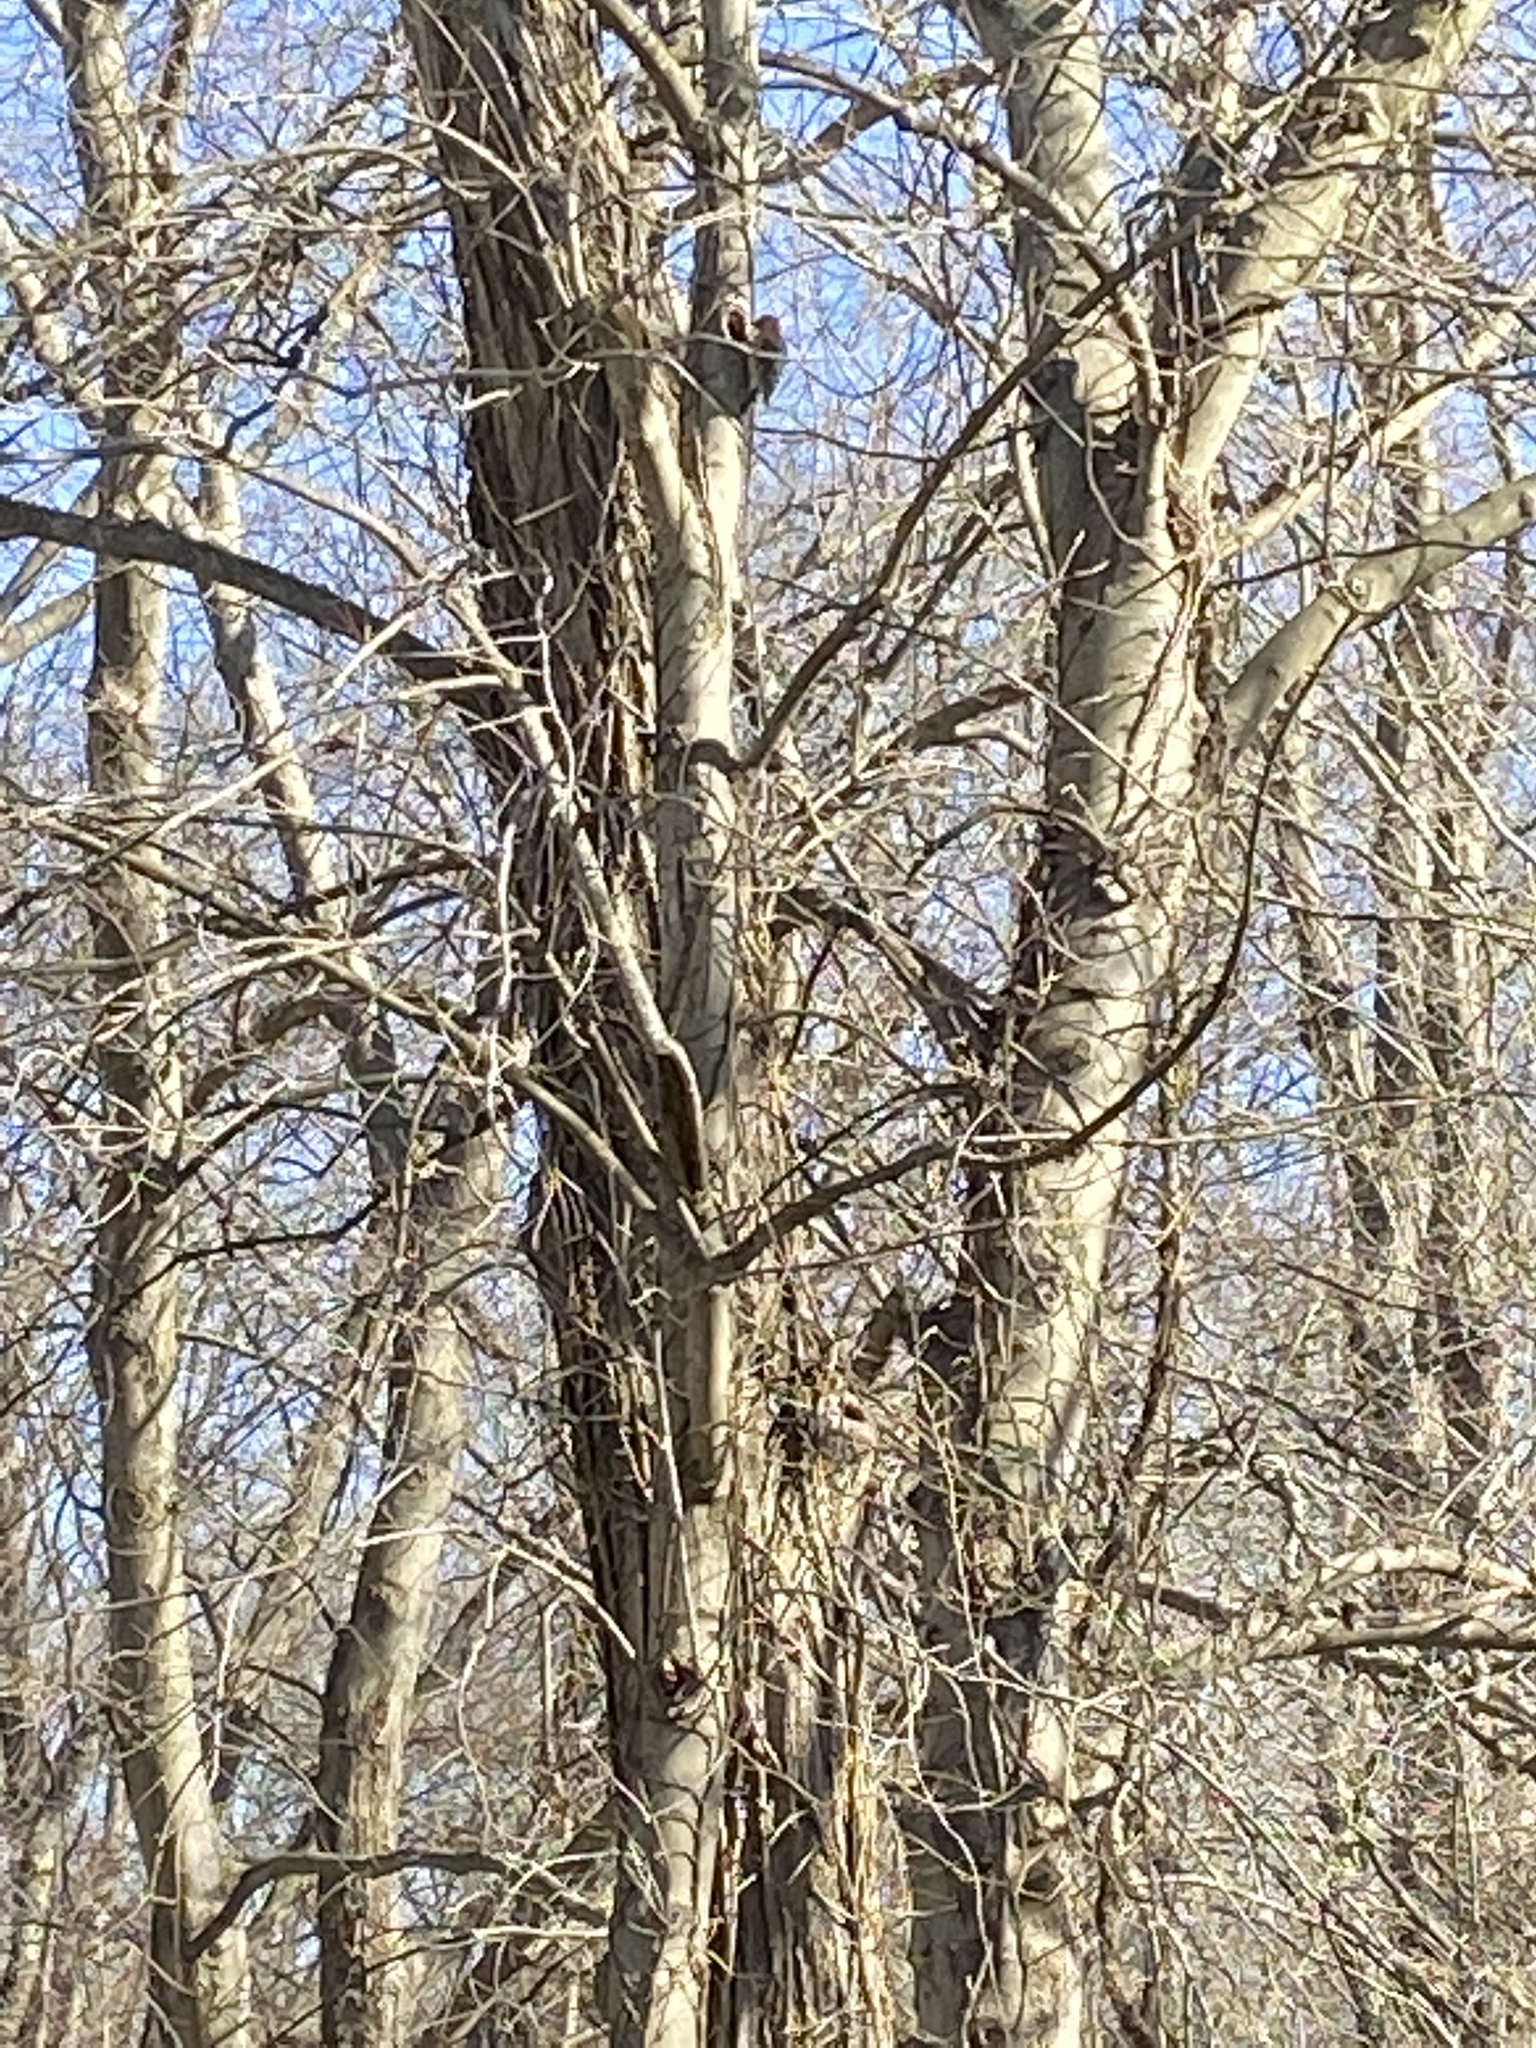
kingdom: Animalia
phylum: Chordata
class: Aves
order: Piciformes
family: Picidae
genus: Colaptes
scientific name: Colaptes auratus
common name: Northern flicker
